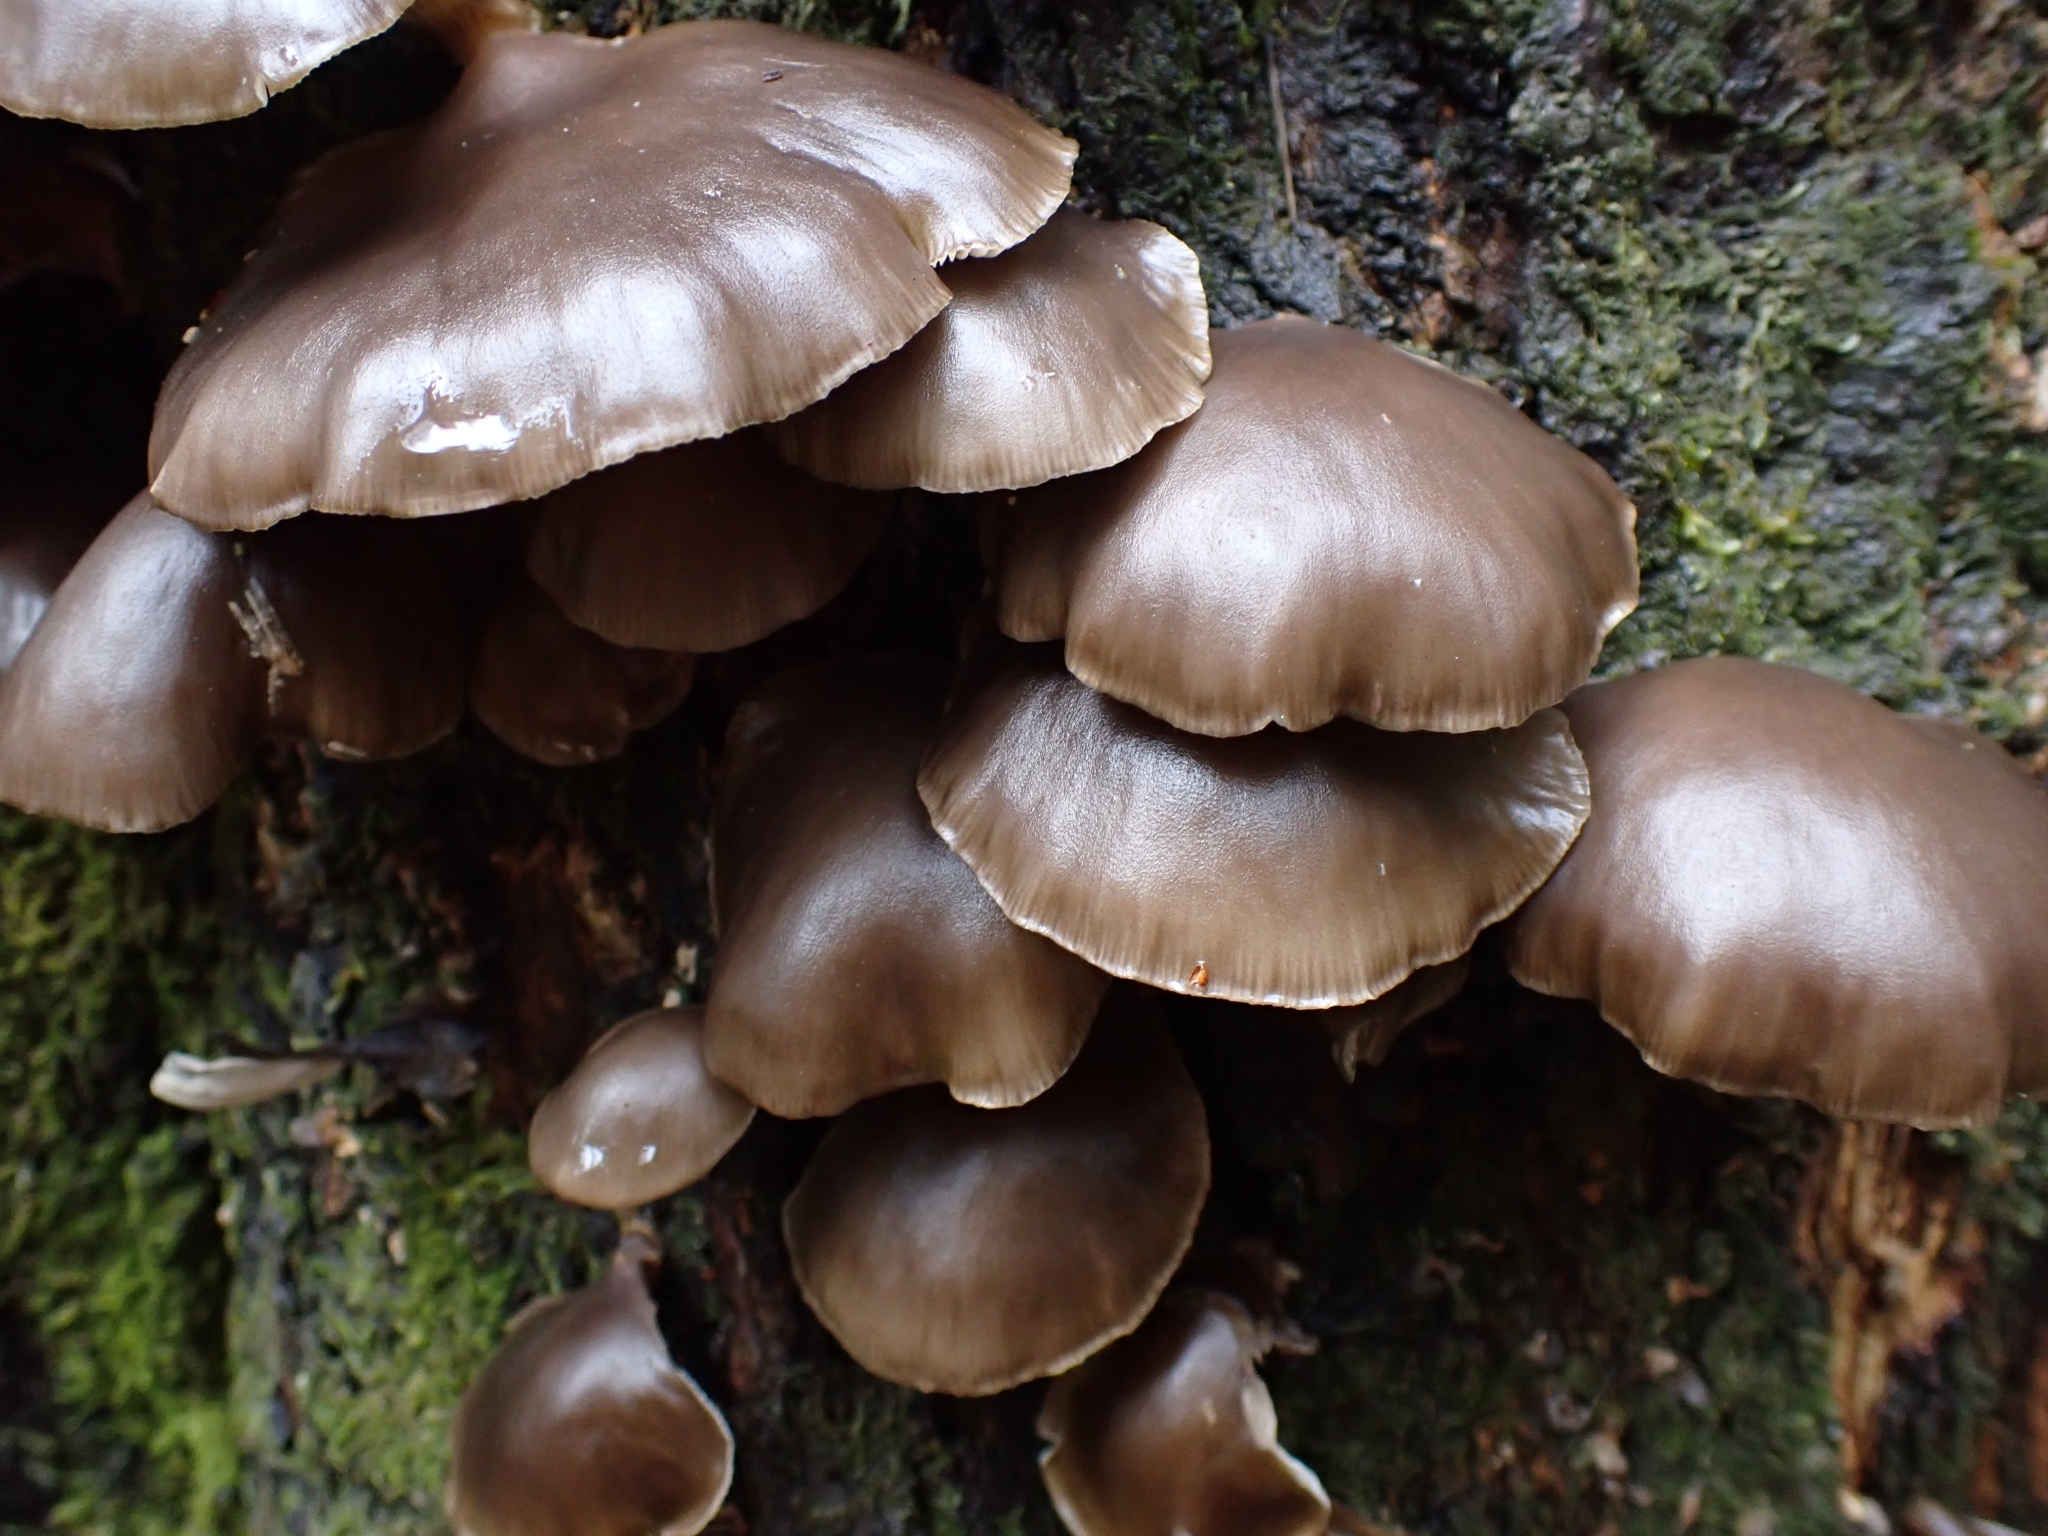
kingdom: Fungi
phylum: Basidiomycota
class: Agaricomycetes
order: Agaricales
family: Pleurotaceae
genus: Pleurotus
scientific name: Pleurotus purpureo-olivaceus
